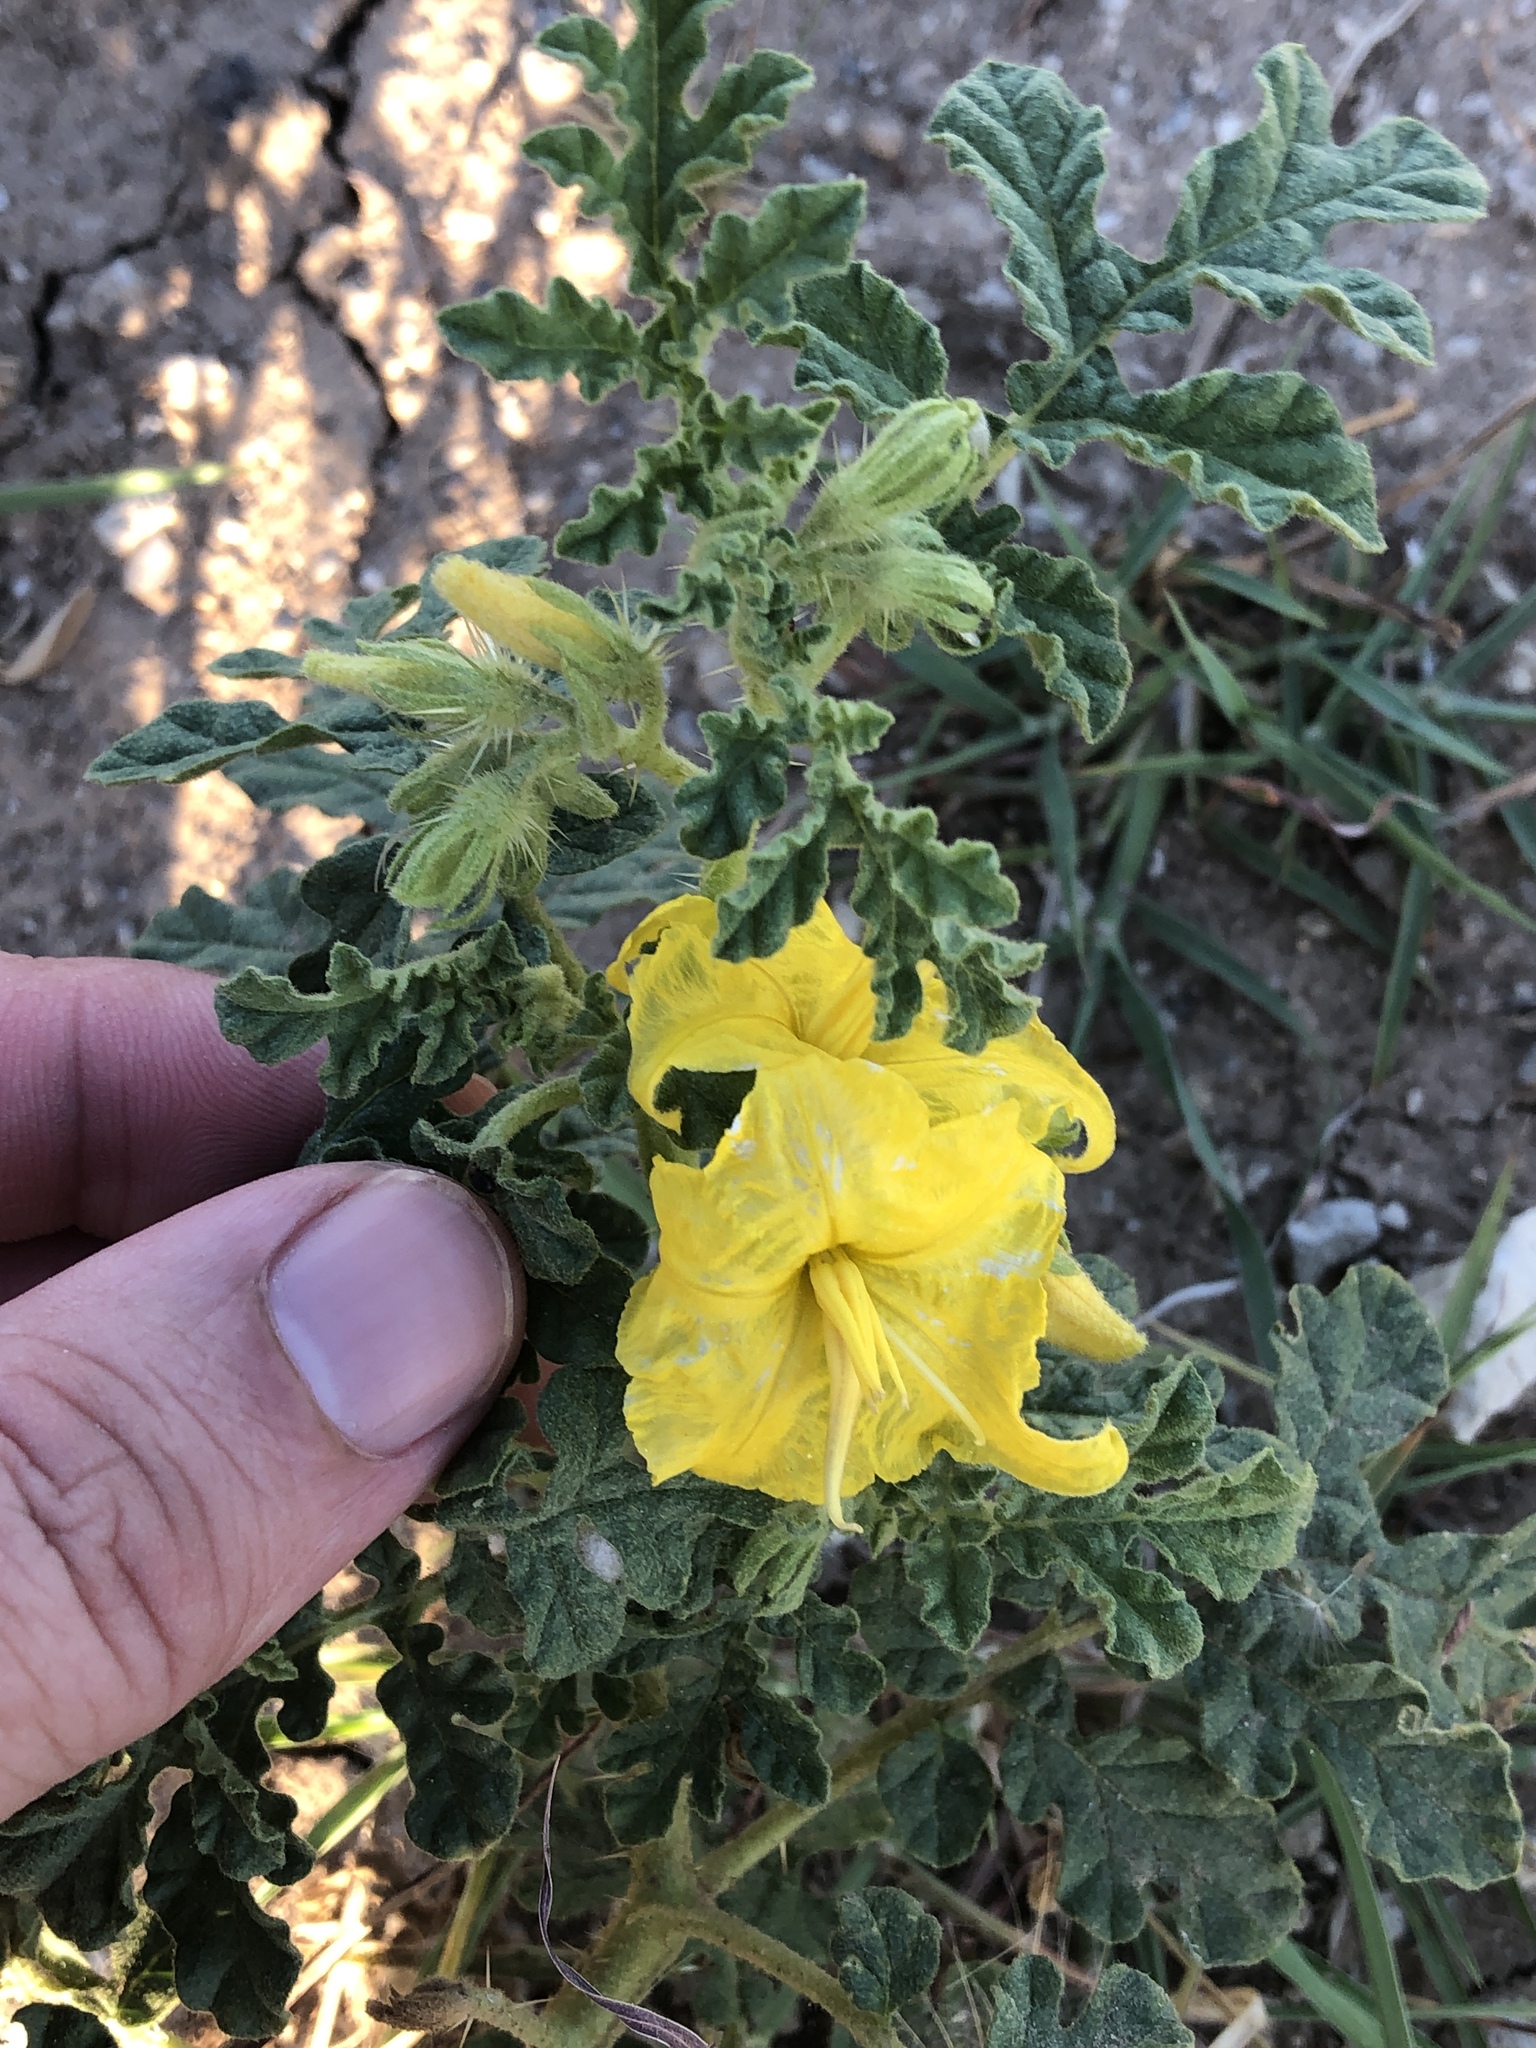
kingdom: Plantae
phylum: Tracheophyta
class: Magnoliopsida
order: Solanales
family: Solanaceae
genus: Solanum
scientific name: Solanum angustifolium
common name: Buffalobur nightshade
